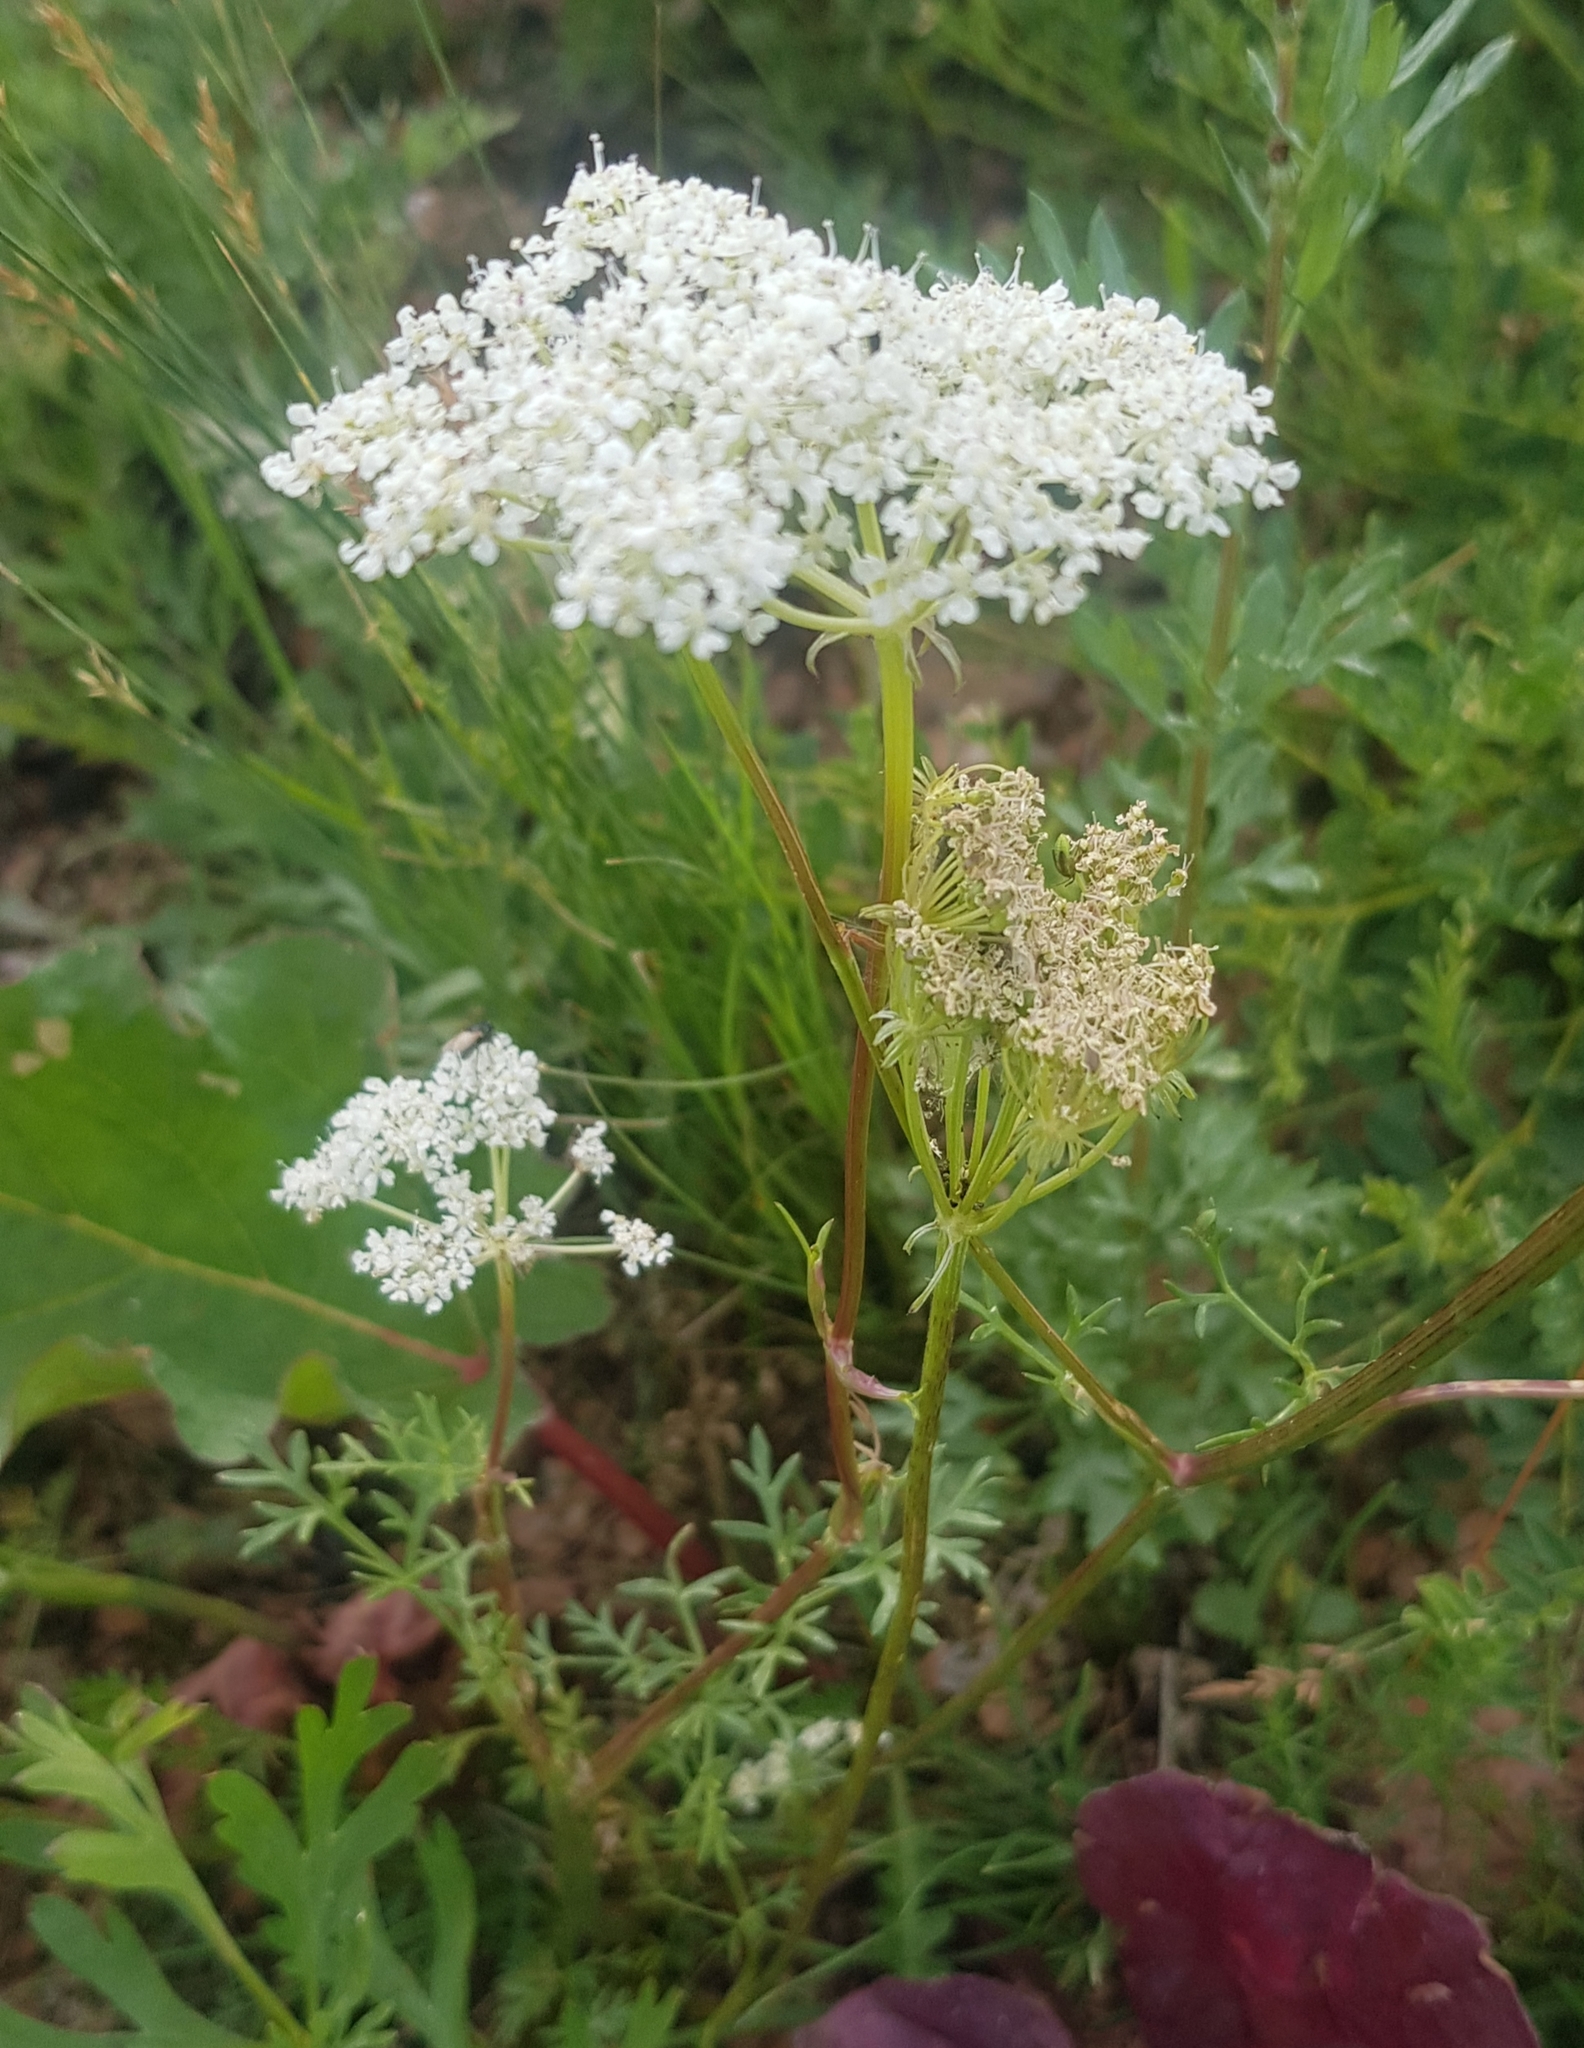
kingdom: Plantae
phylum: Tracheophyta
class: Magnoliopsida
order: Apiales
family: Apiaceae
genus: Kitagawia
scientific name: Kitagawia baicalensis
